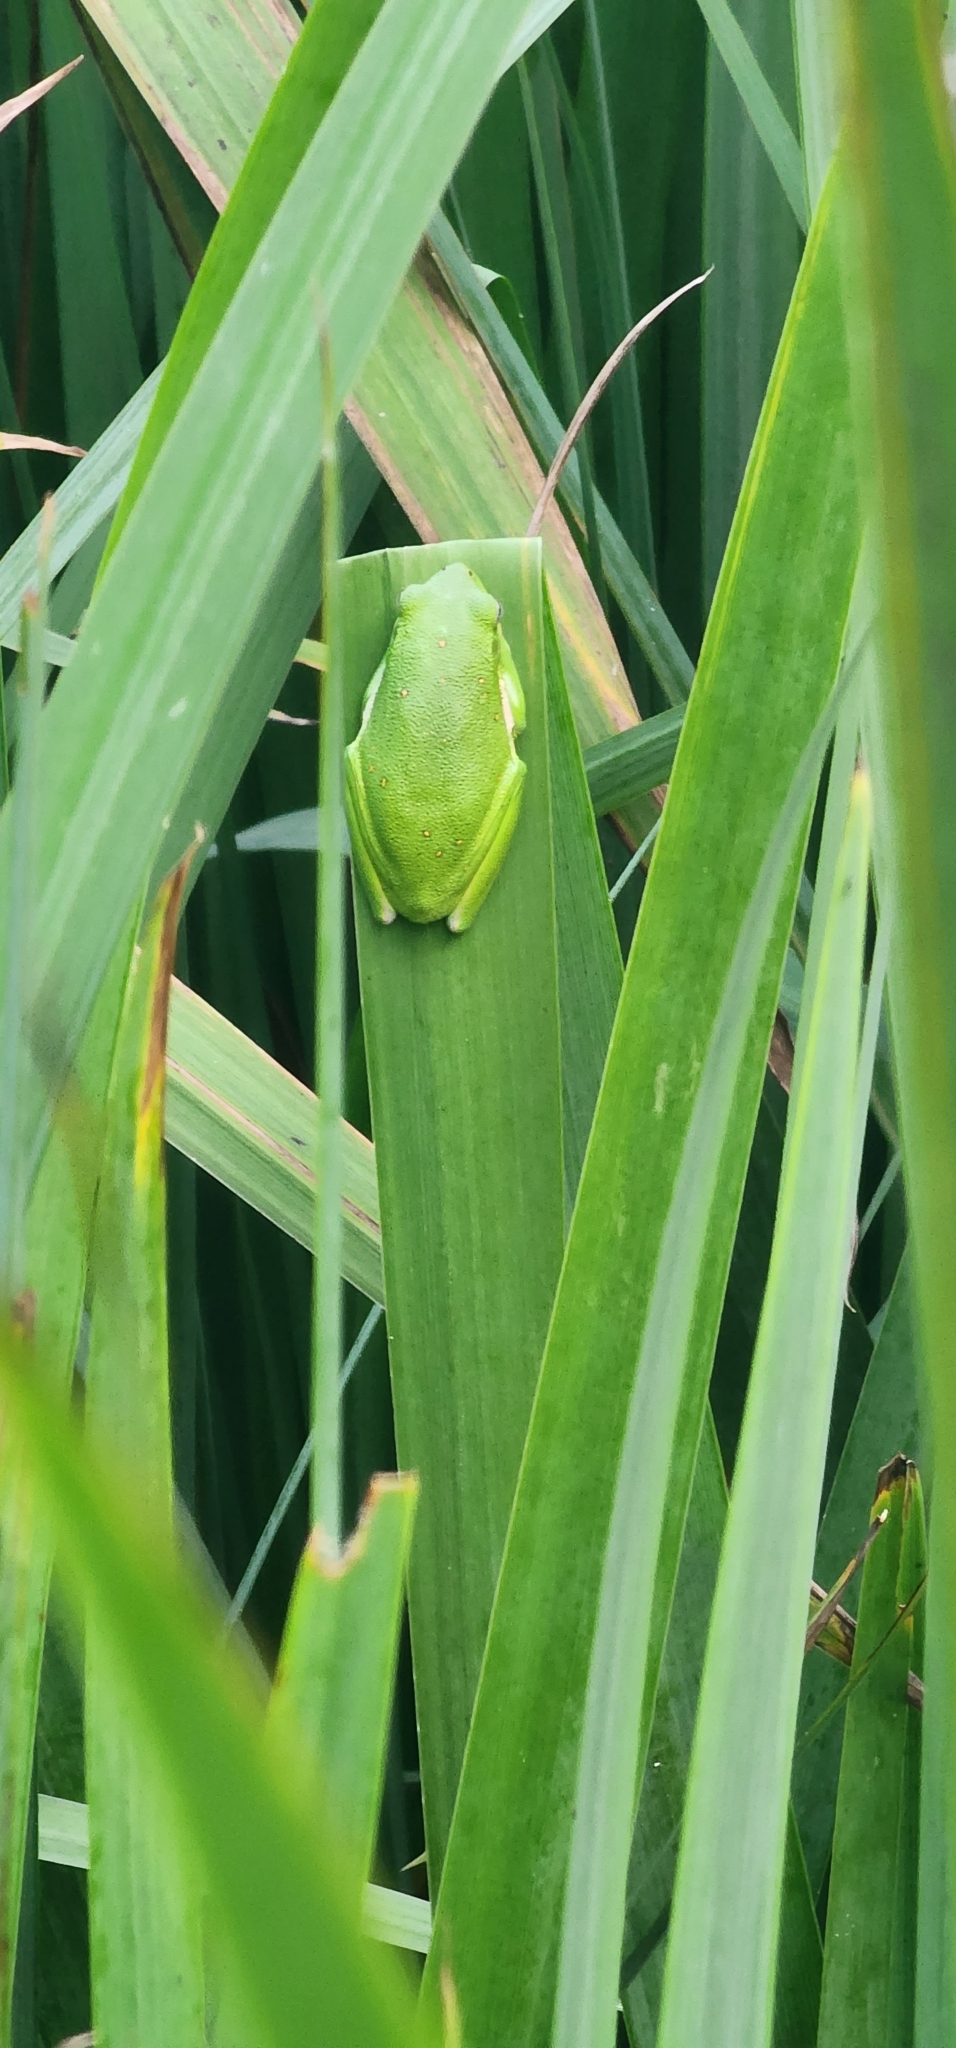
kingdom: Animalia
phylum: Chordata
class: Amphibia
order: Anura
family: Hylidae
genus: Dryophytes
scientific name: Dryophytes cinereus
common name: Green treefrog
